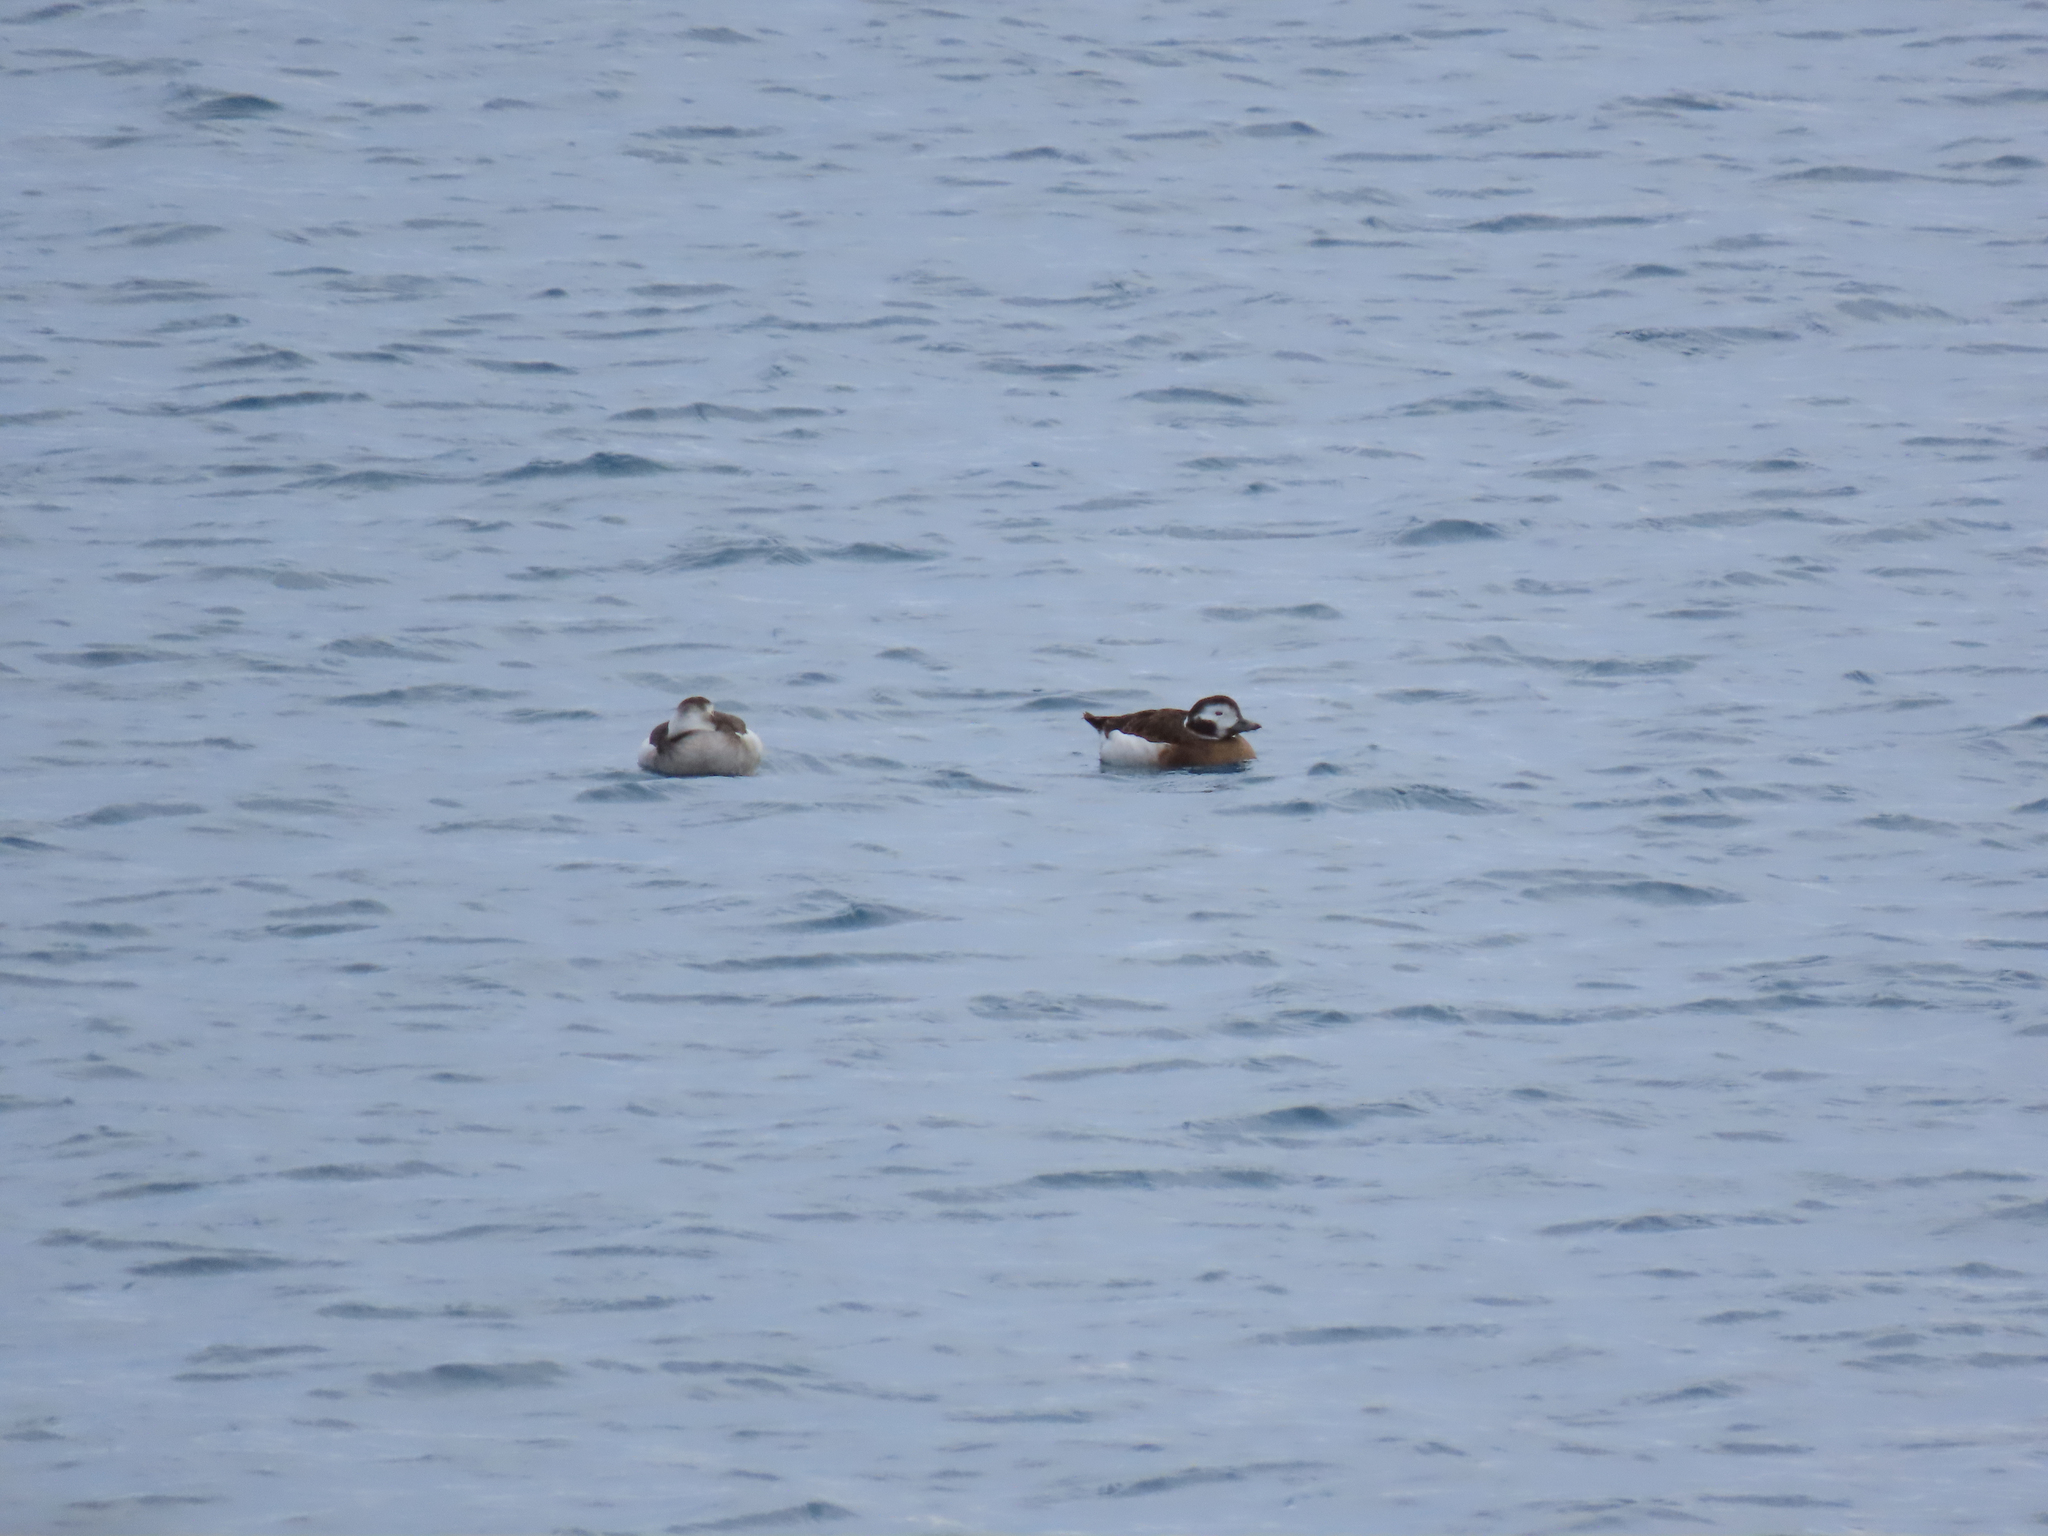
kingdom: Animalia
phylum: Chordata
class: Aves
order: Anseriformes
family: Anatidae
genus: Clangula
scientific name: Clangula hyemalis
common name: Long-tailed duck
